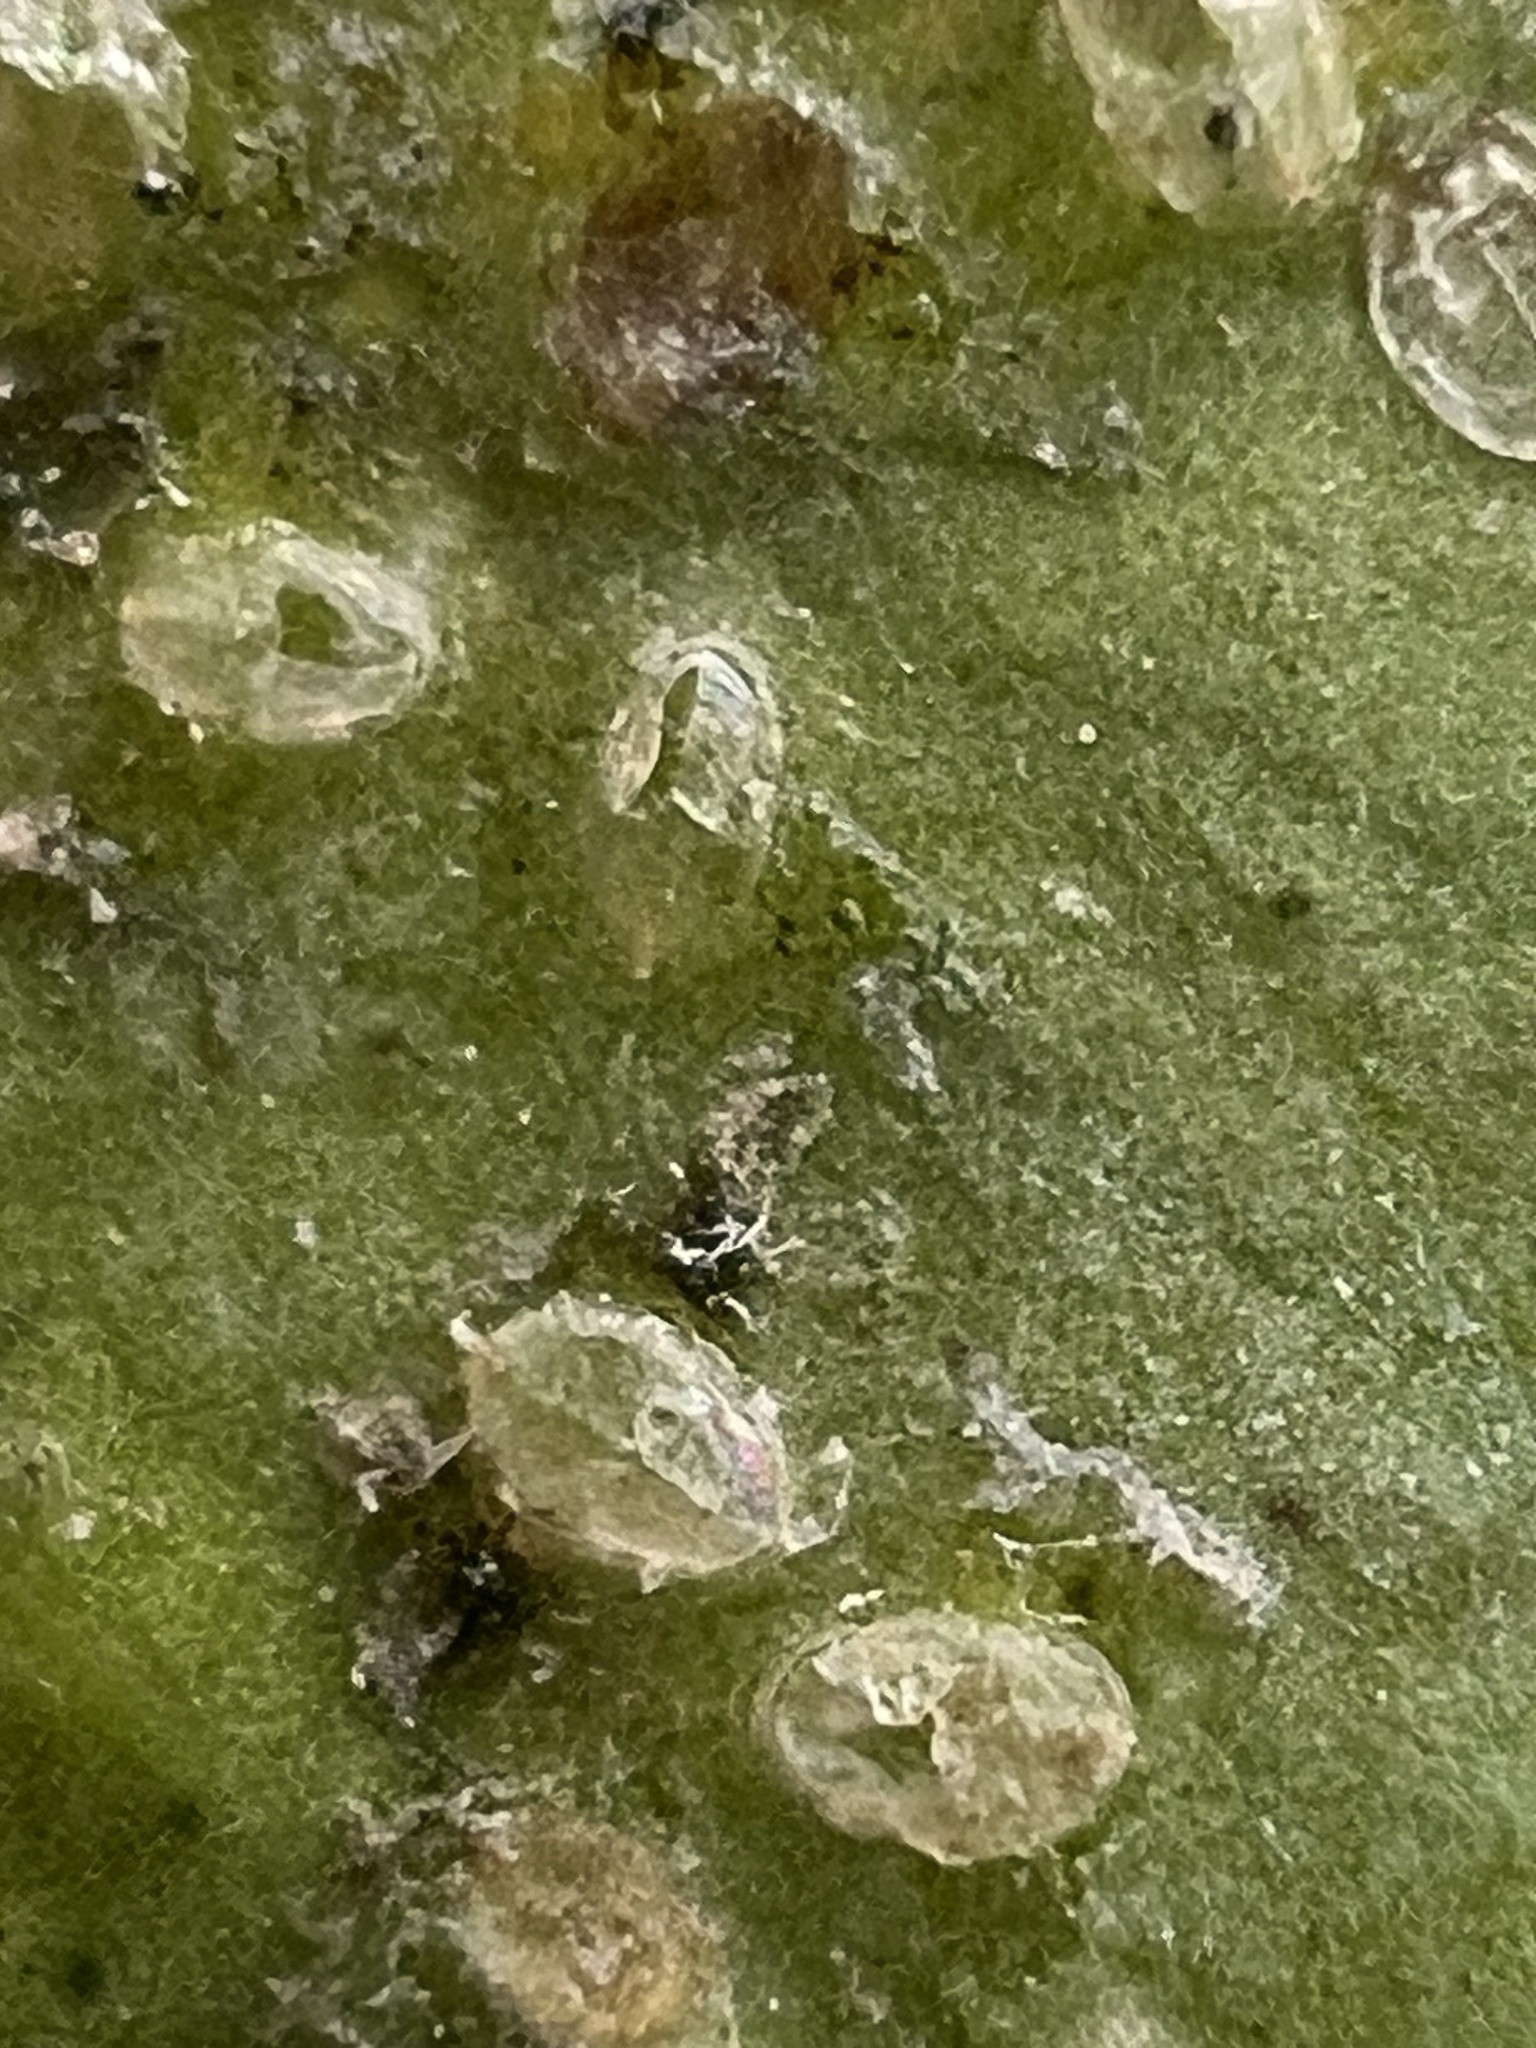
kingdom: Animalia
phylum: Arthropoda
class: Insecta
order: Hemiptera
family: Aleyrodidae
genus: Orchamoplatus
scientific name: Orchamoplatus citri
